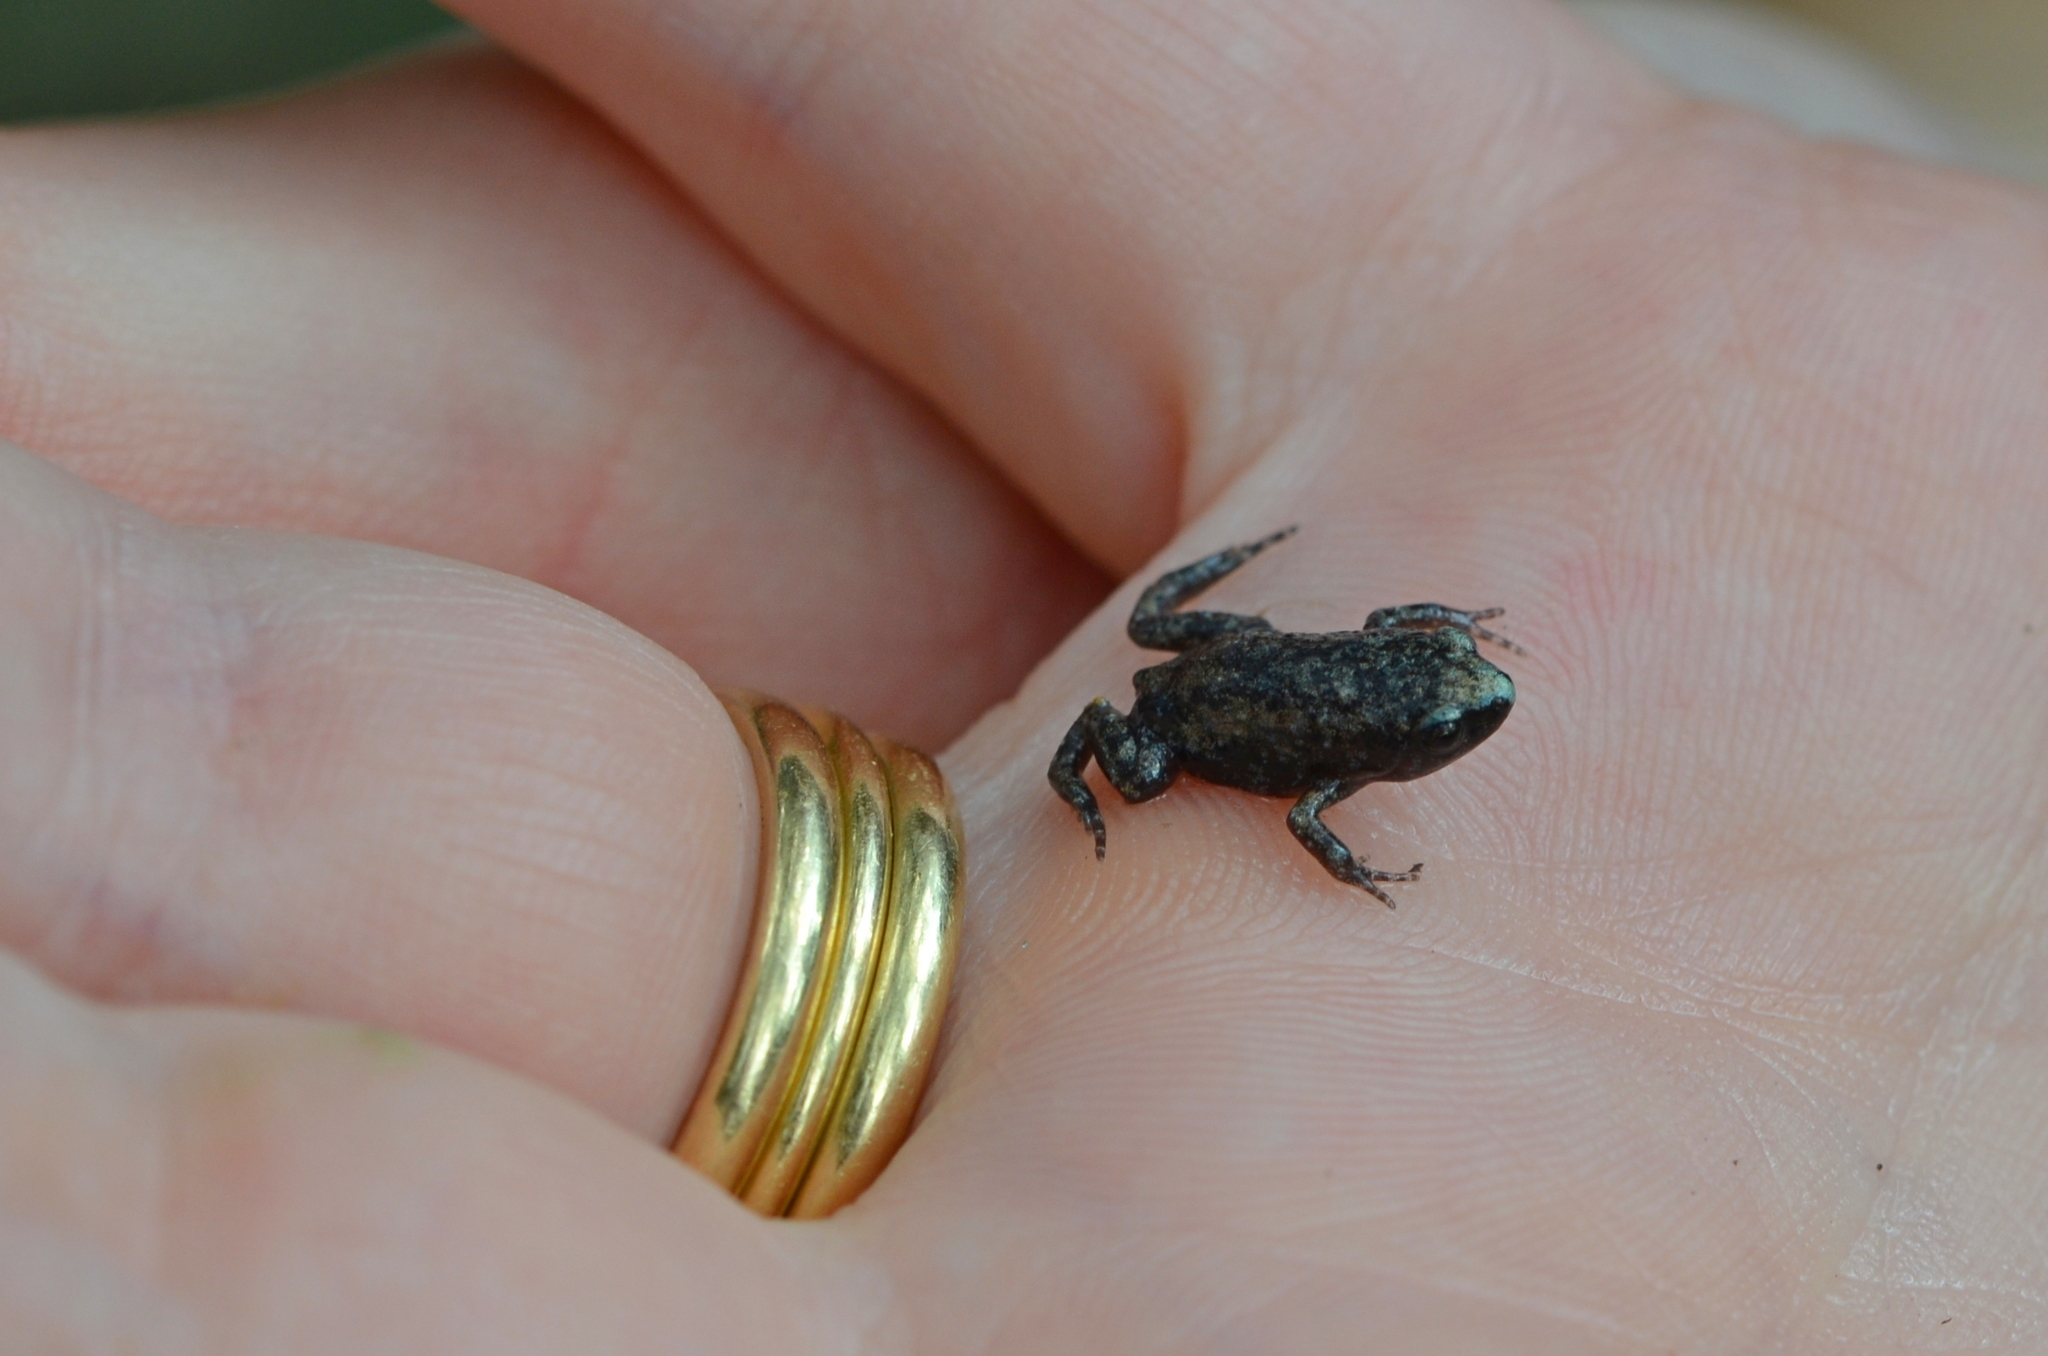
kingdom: Animalia
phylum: Chordata
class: Amphibia
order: Anura
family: Microhylidae
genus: Gastrophryne
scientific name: Gastrophryne carolinensis
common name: Eastern narrowmouth toad
